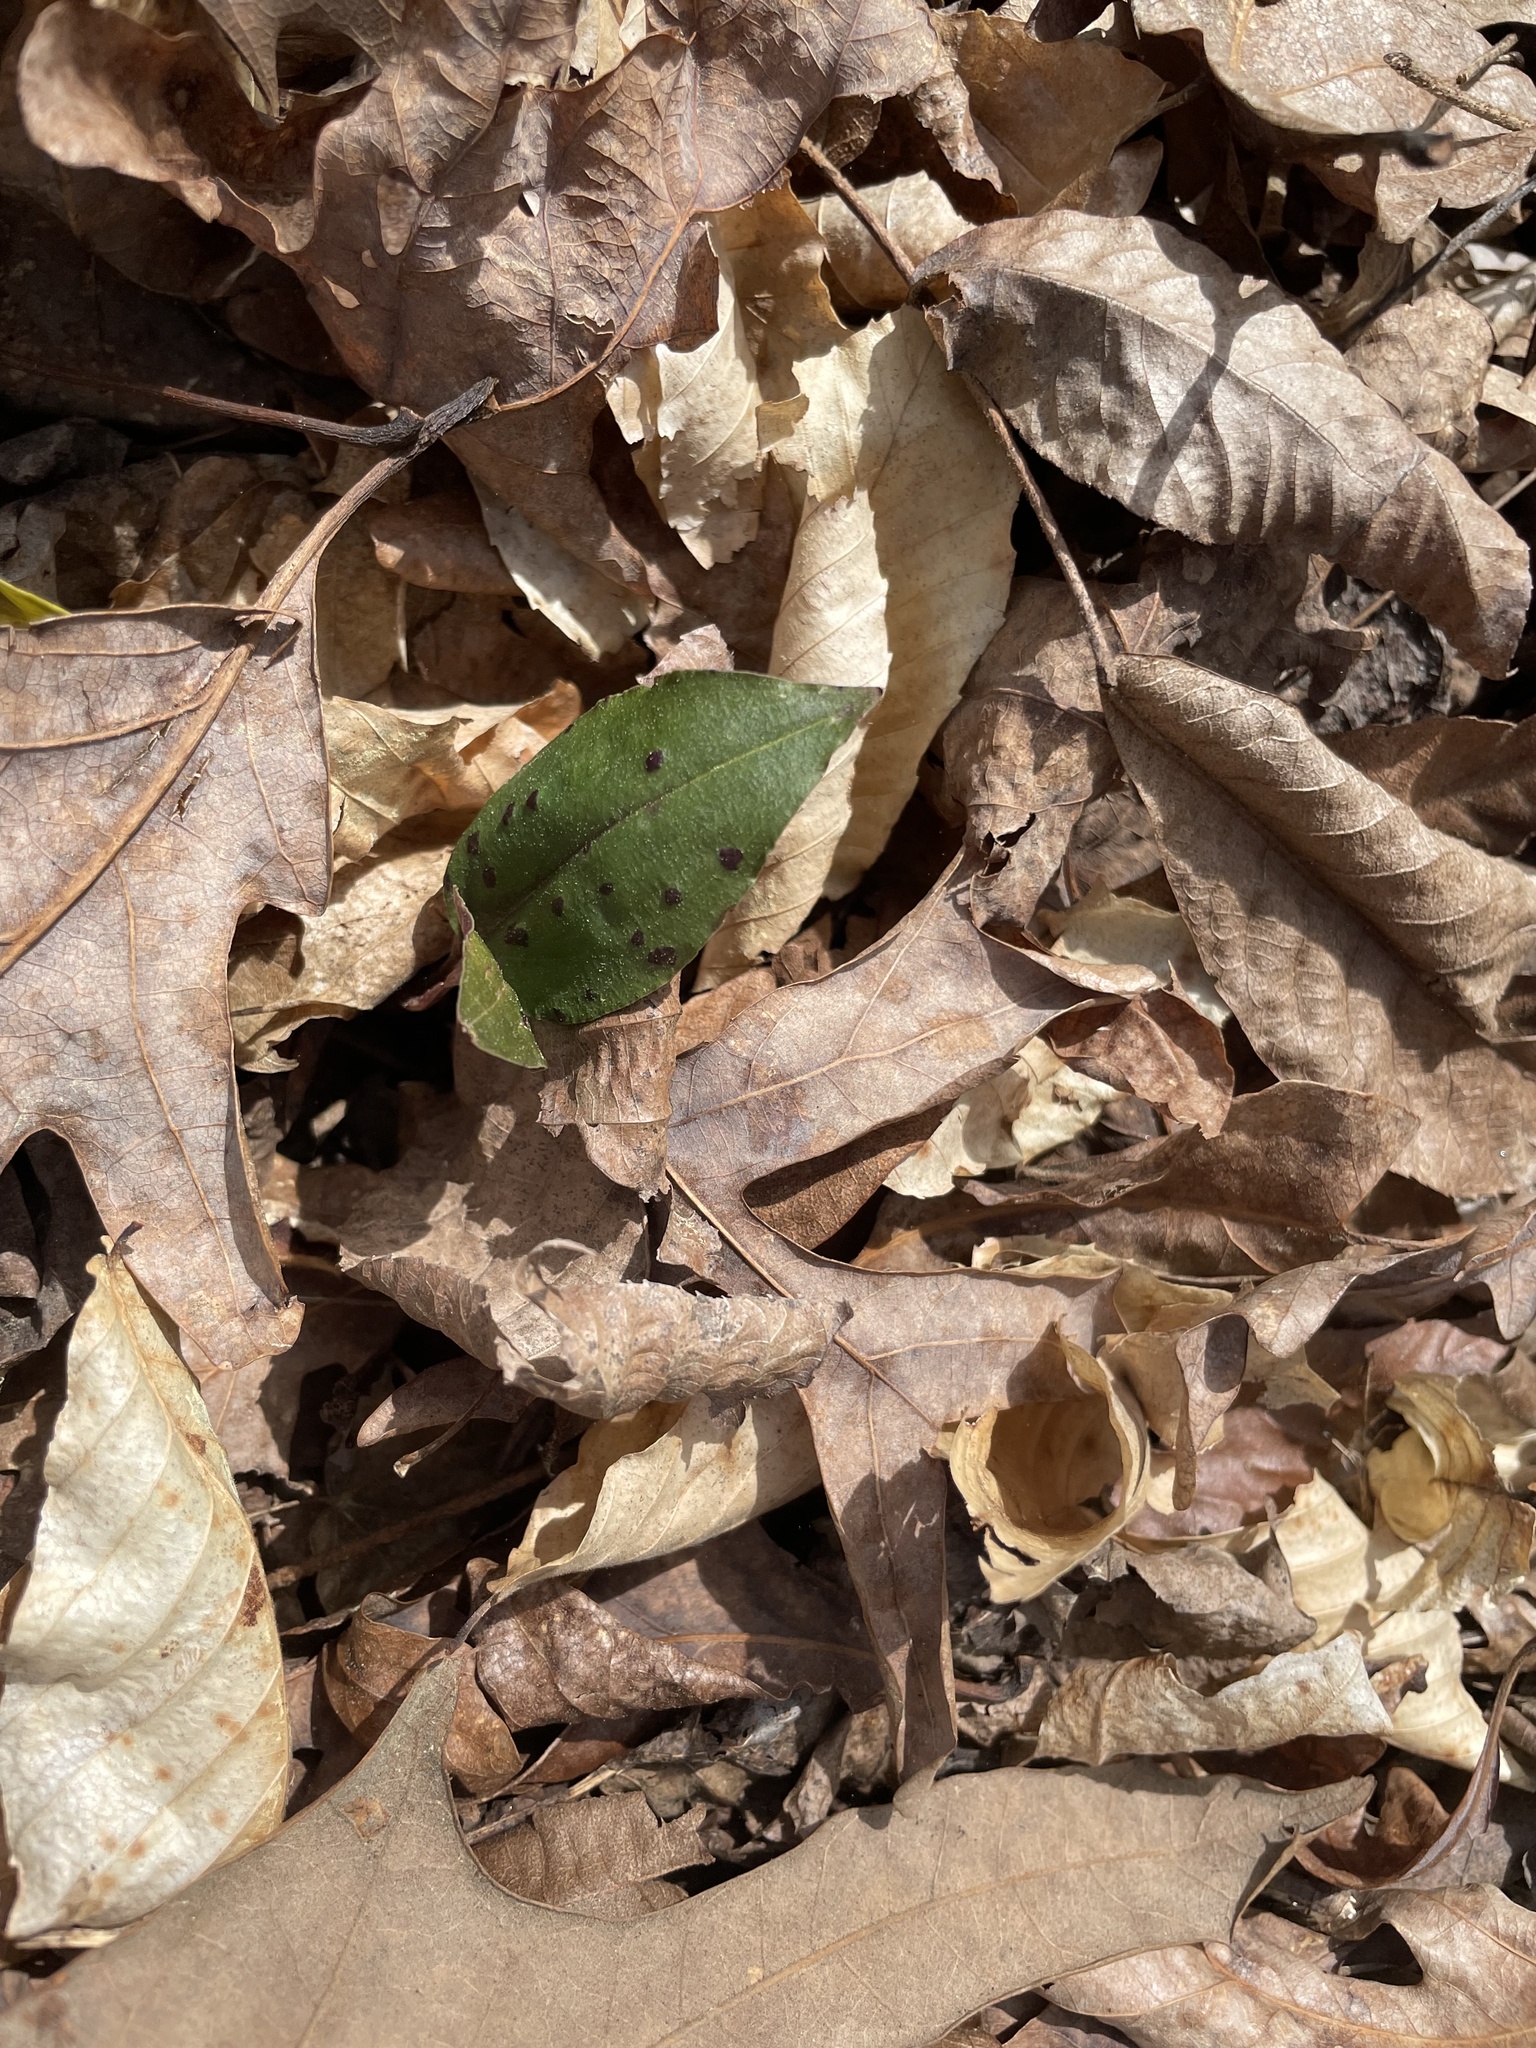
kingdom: Plantae
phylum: Tracheophyta
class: Liliopsida
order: Asparagales
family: Orchidaceae
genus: Tipularia
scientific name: Tipularia discolor
